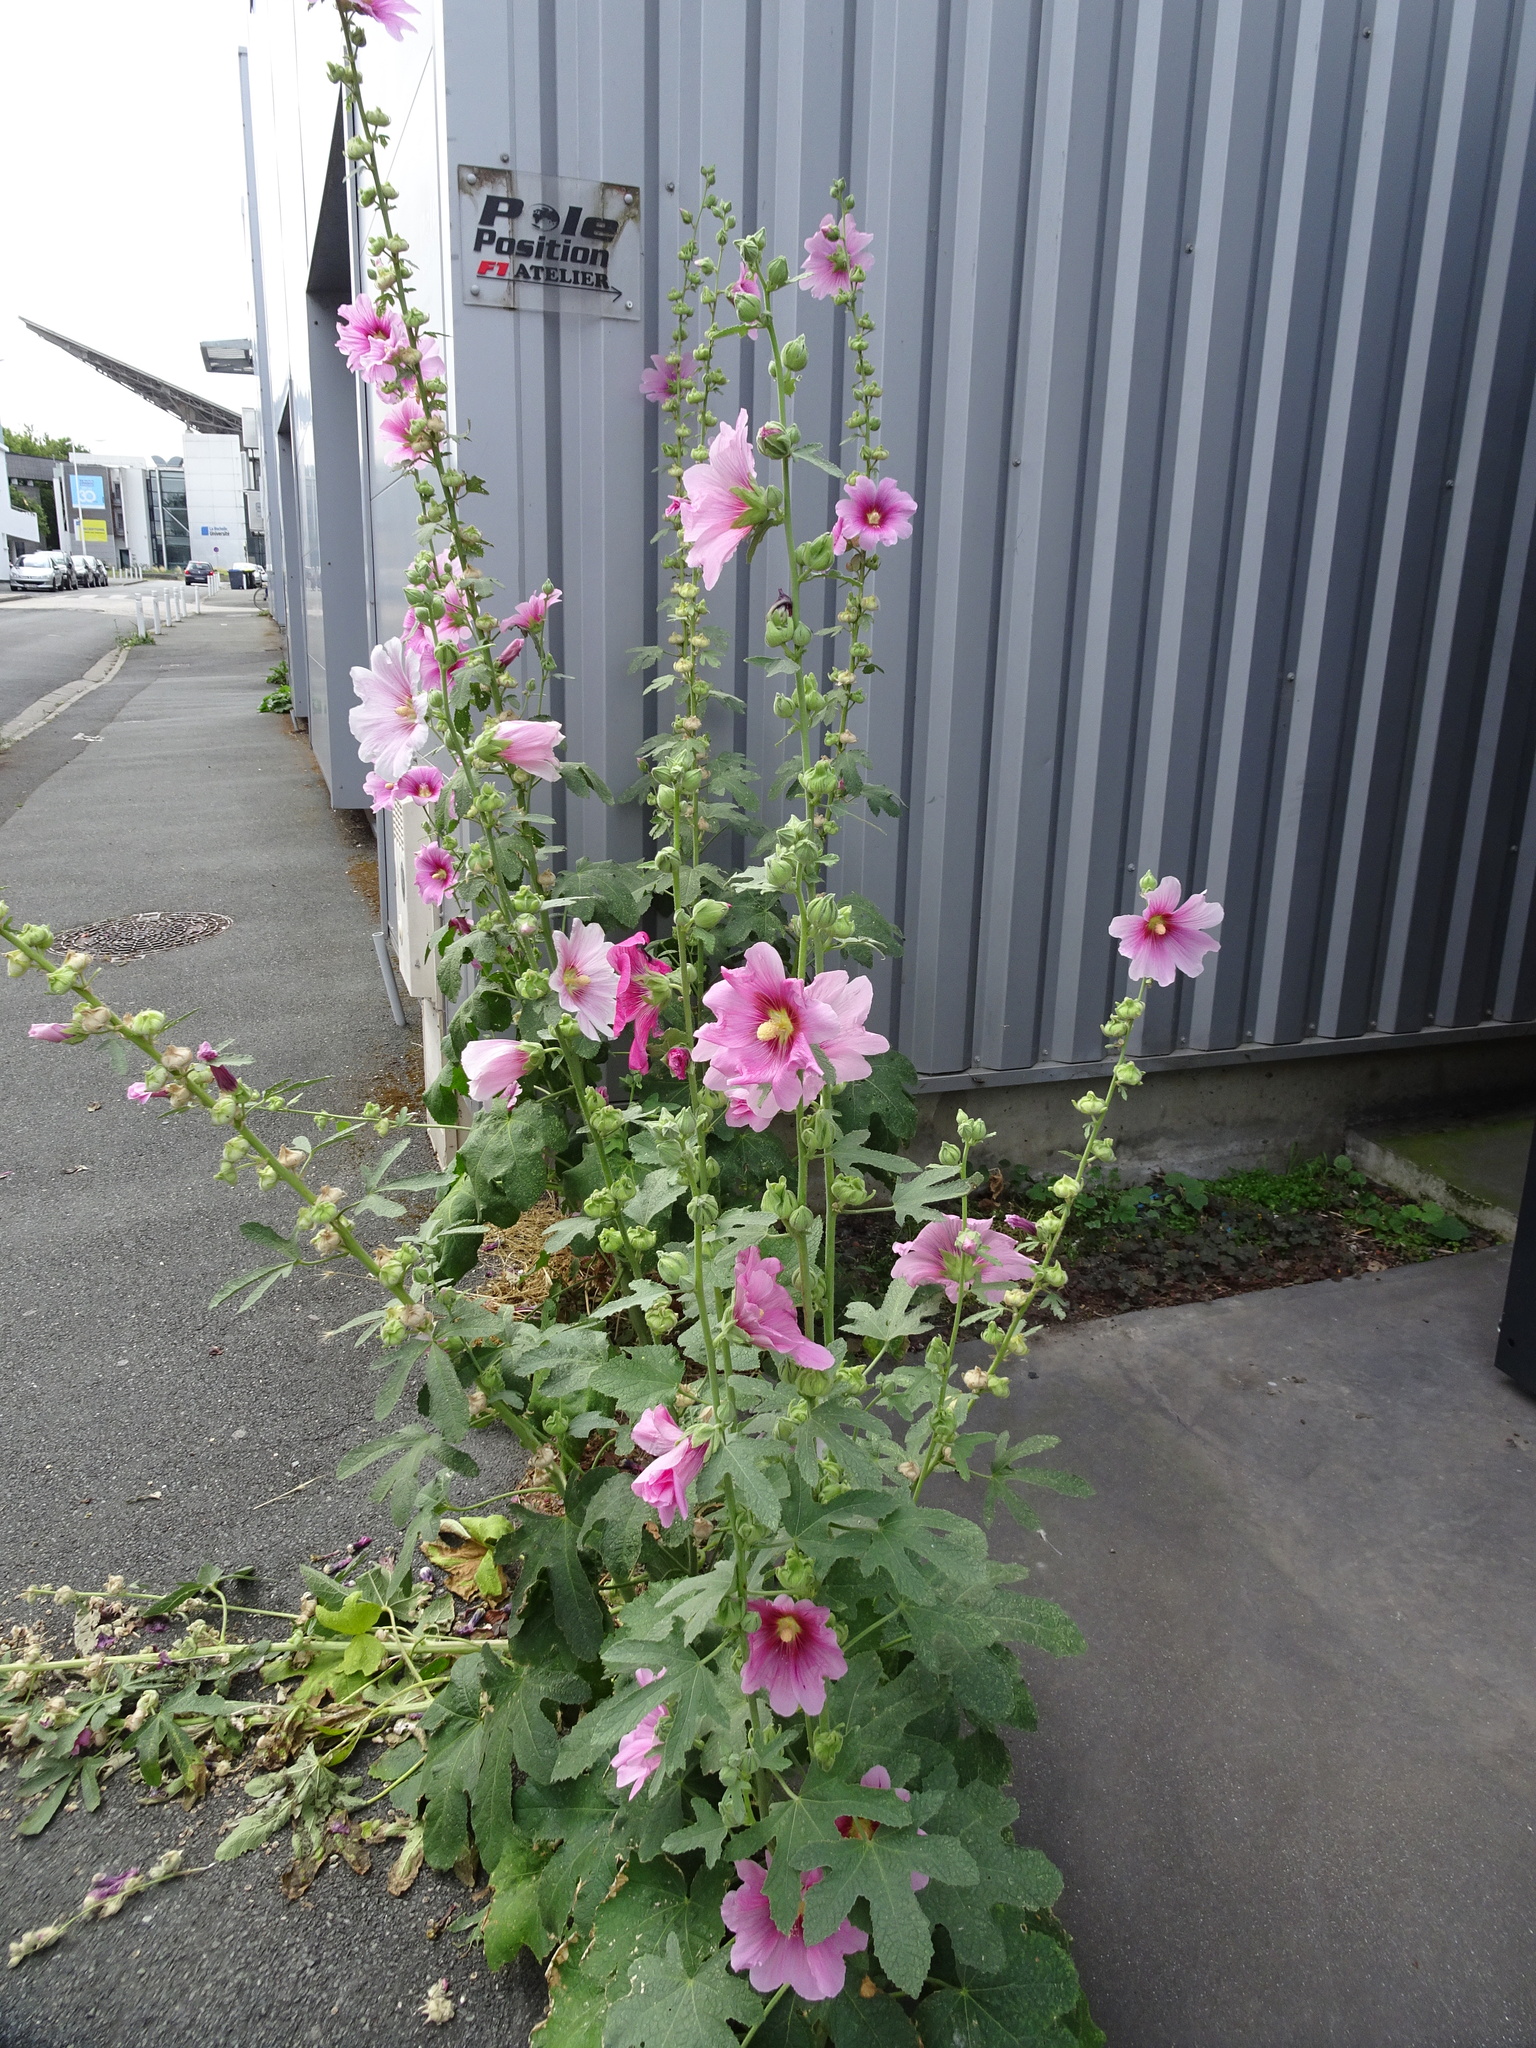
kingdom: Plantae
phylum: Tracheophyta
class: Magnoliopsida
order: Malvales
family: Malvaceae
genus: Alcea
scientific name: Alcea rosea
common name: Hollyhock
